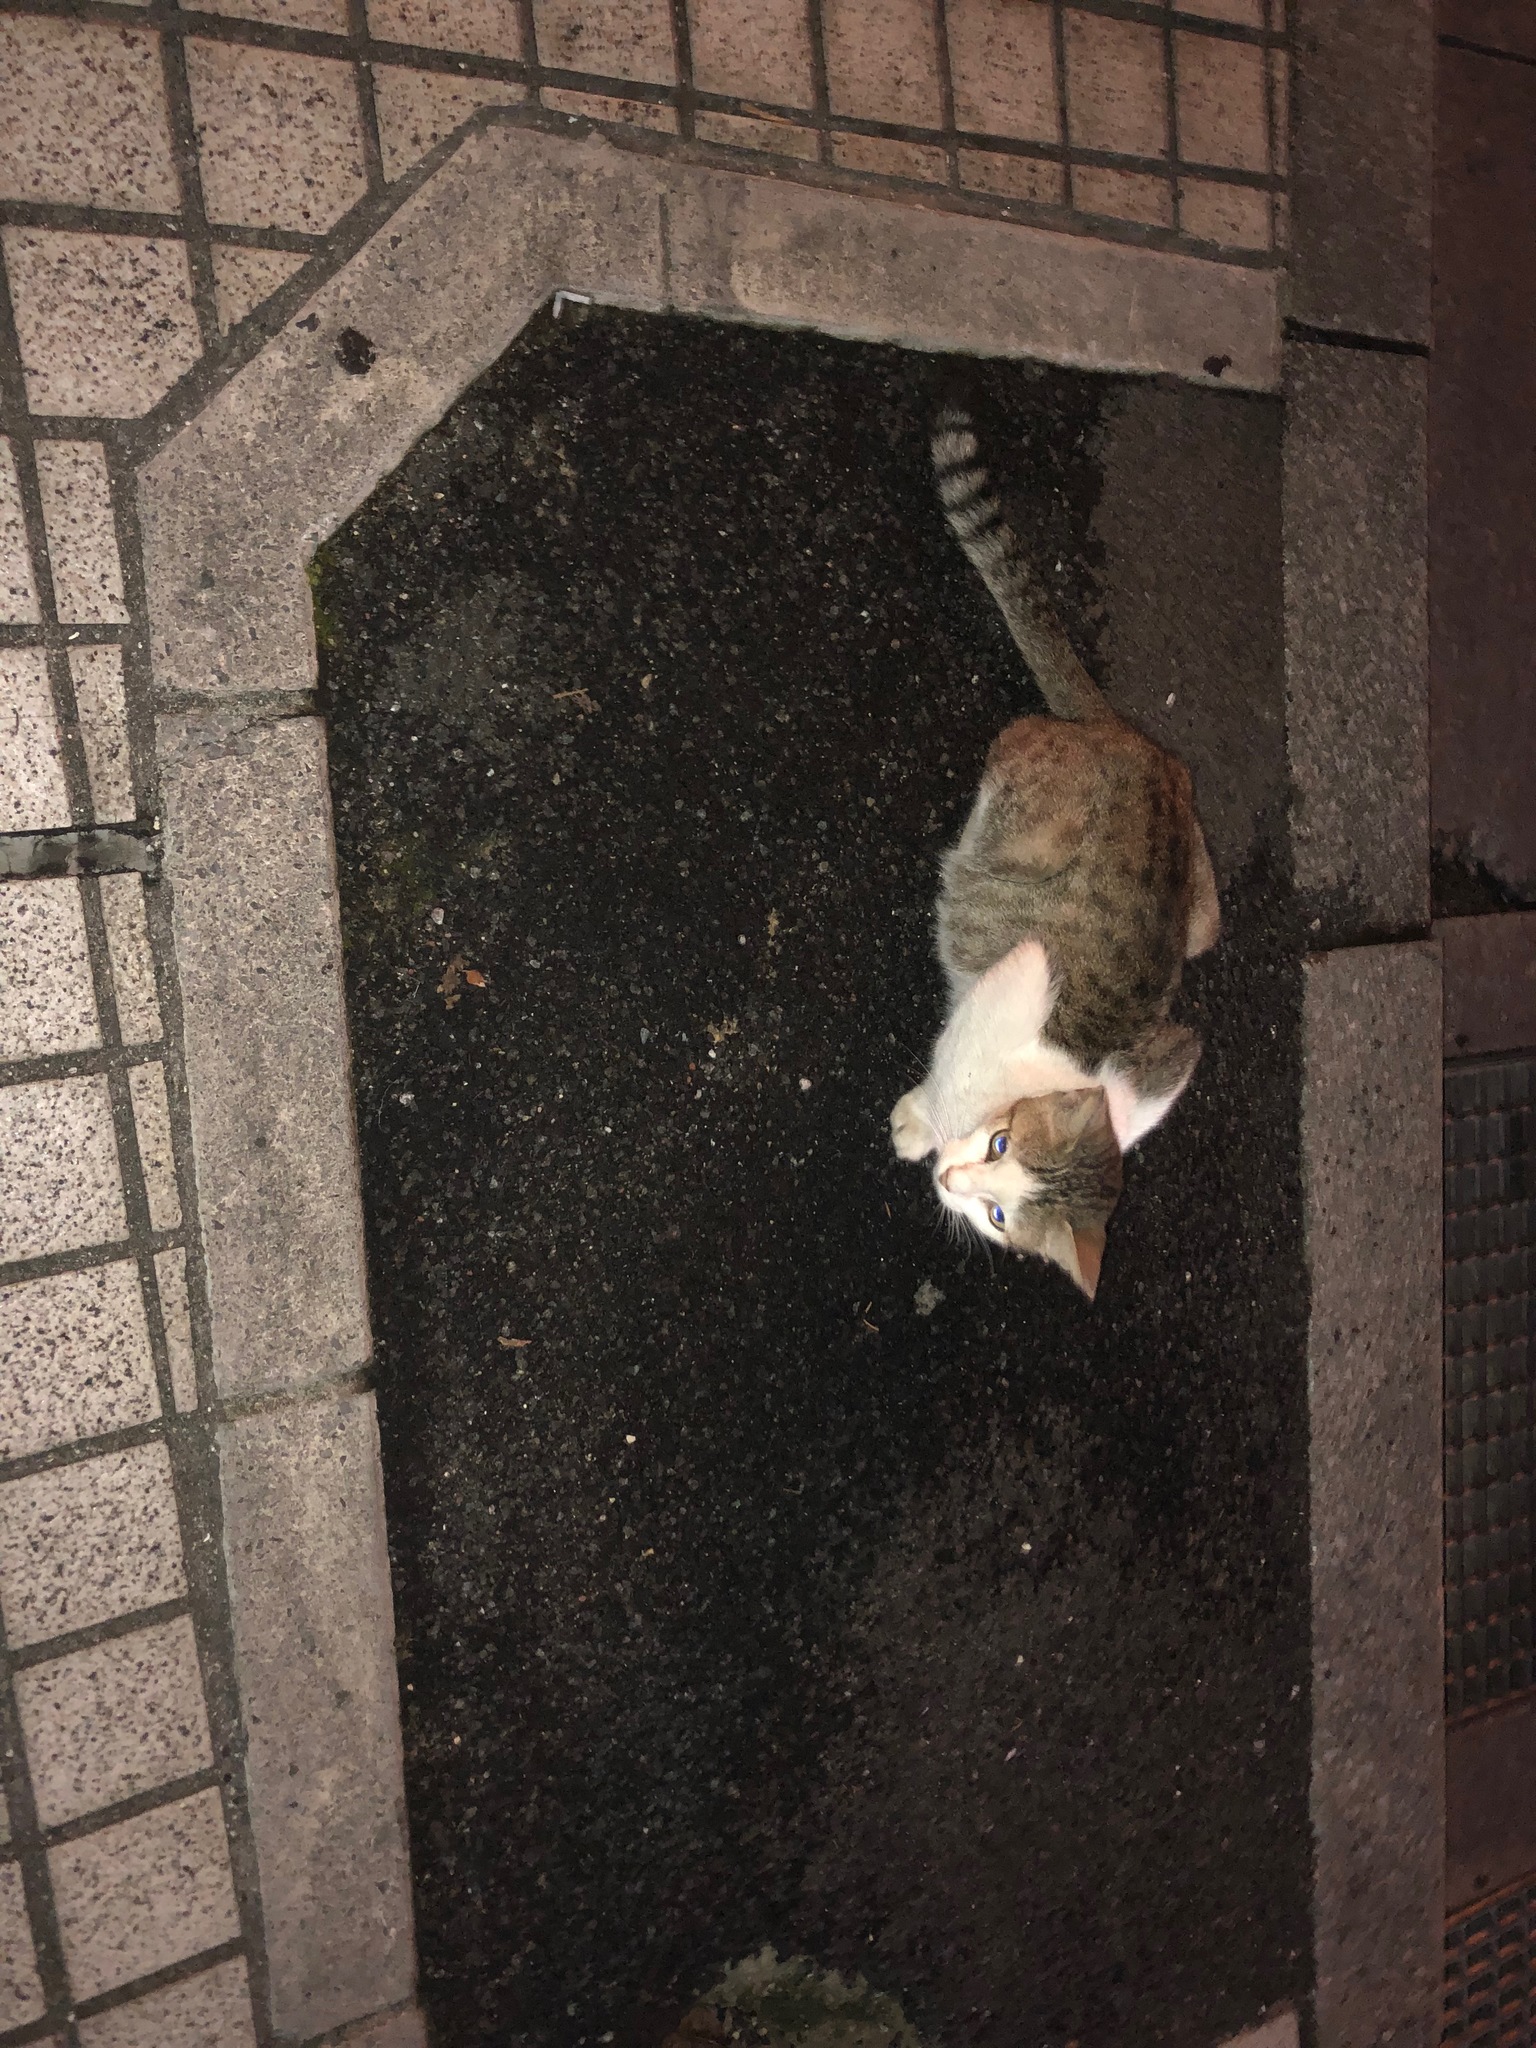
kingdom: Animalia
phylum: Chordata
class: Mammalia
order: Carnivora
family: Felidae
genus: Felis
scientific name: Felis catus
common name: Domestic cat
